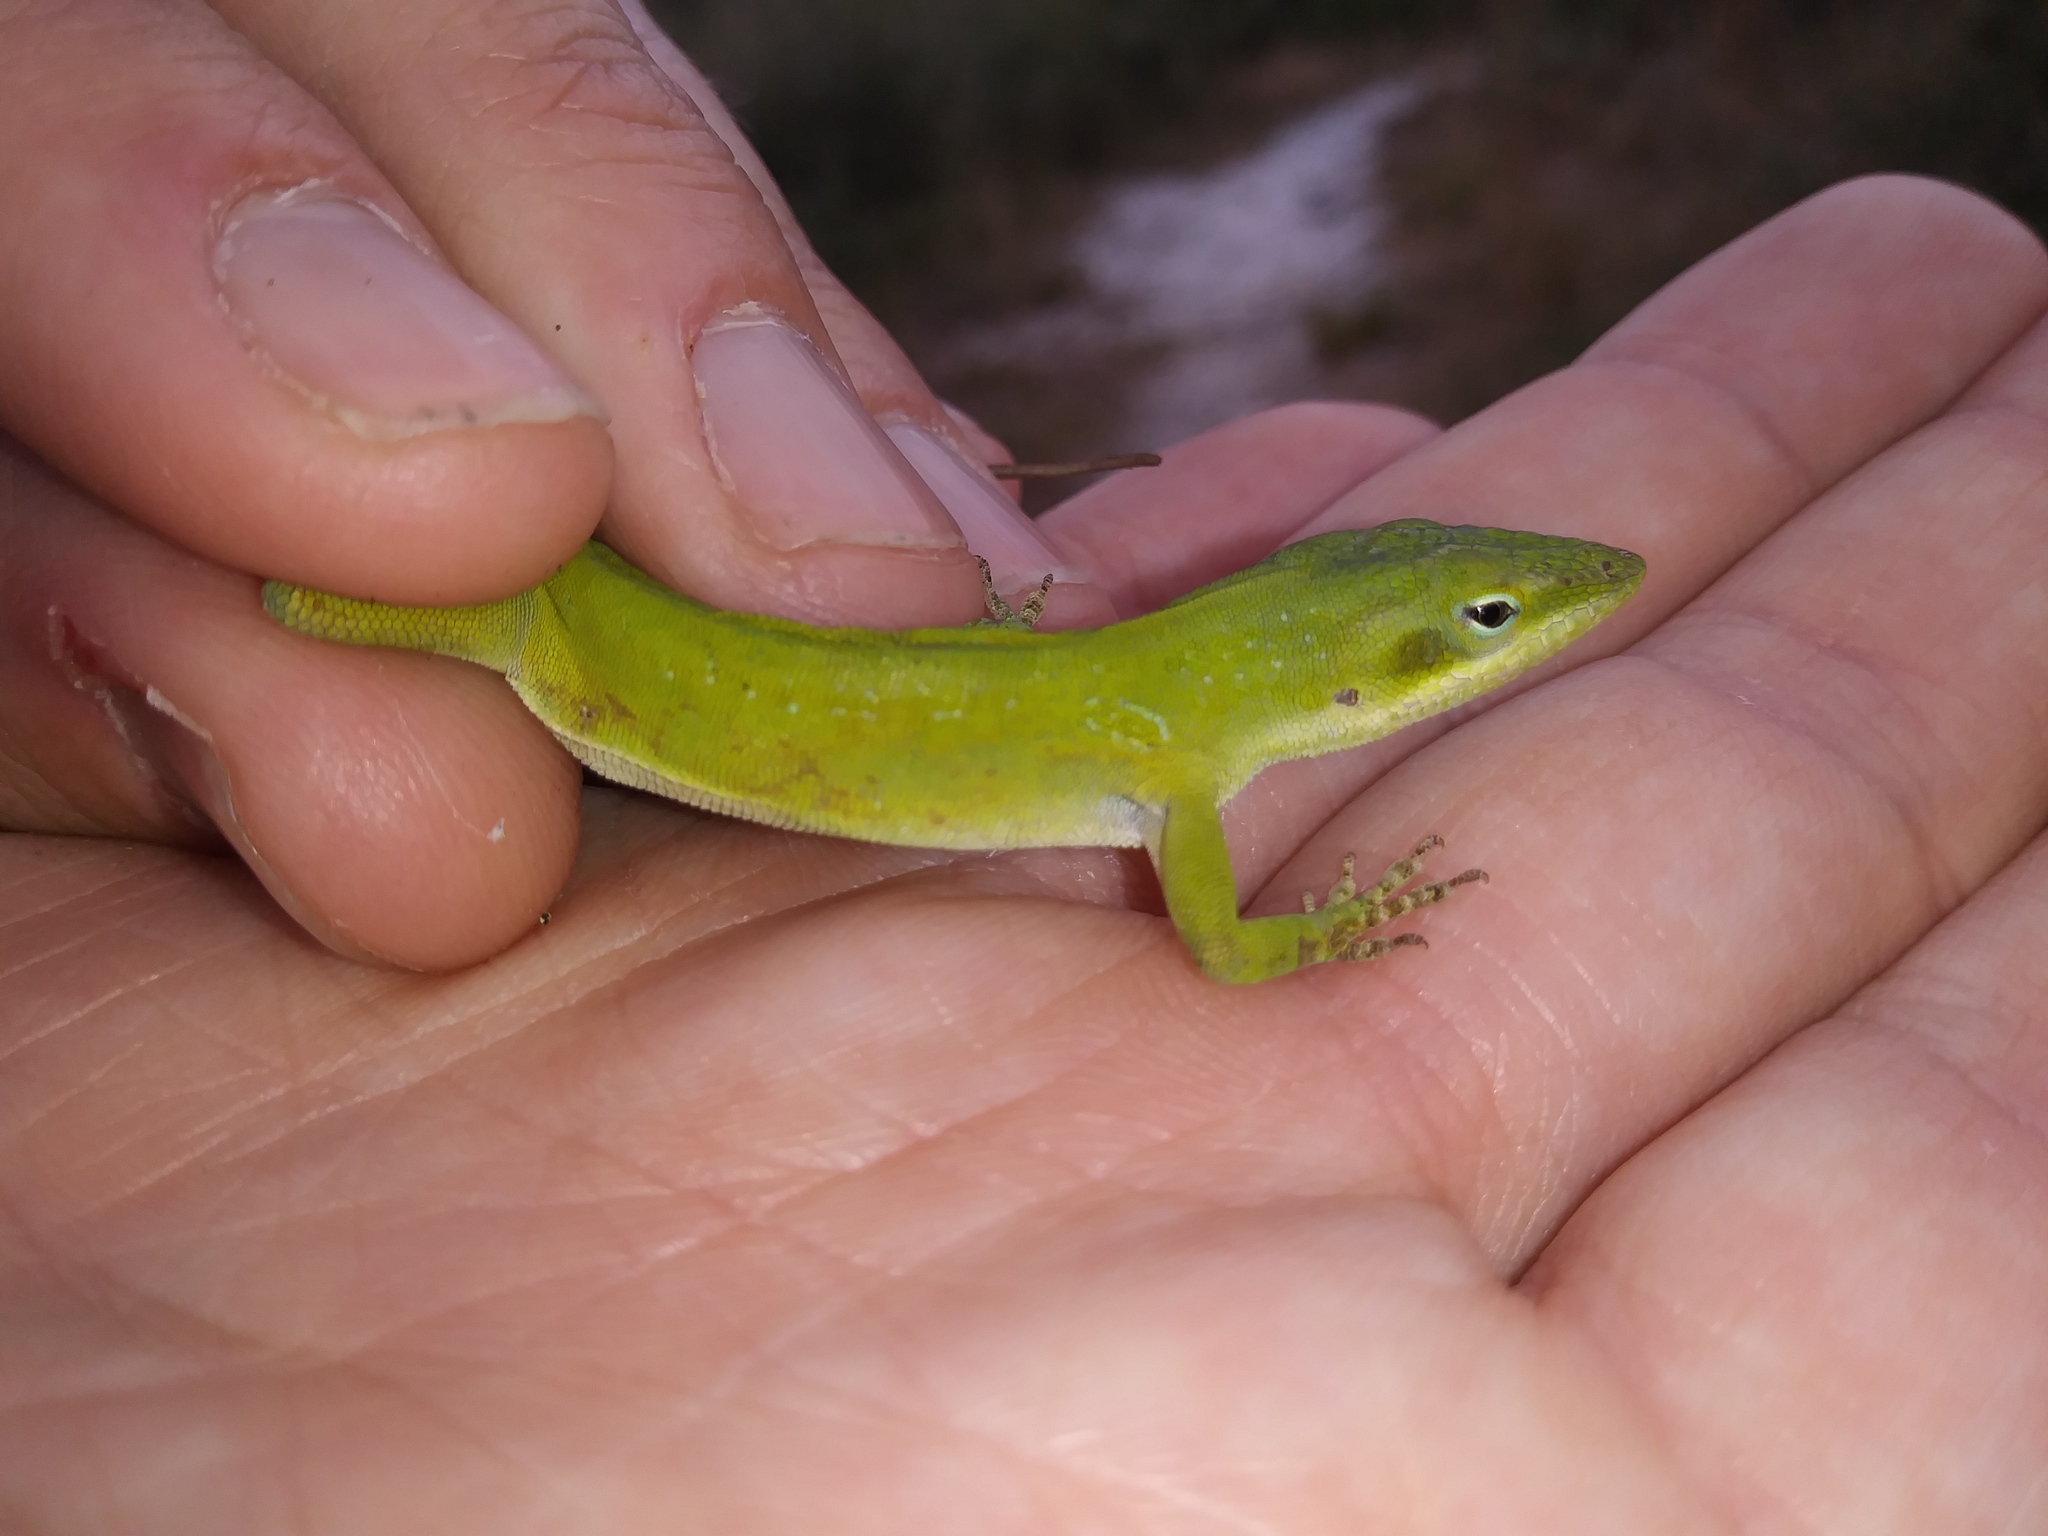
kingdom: Animalia
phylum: Chordata
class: Squamata
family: Dactyloidae
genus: Anolis
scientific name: Anolis carolinensis
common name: Green anole
